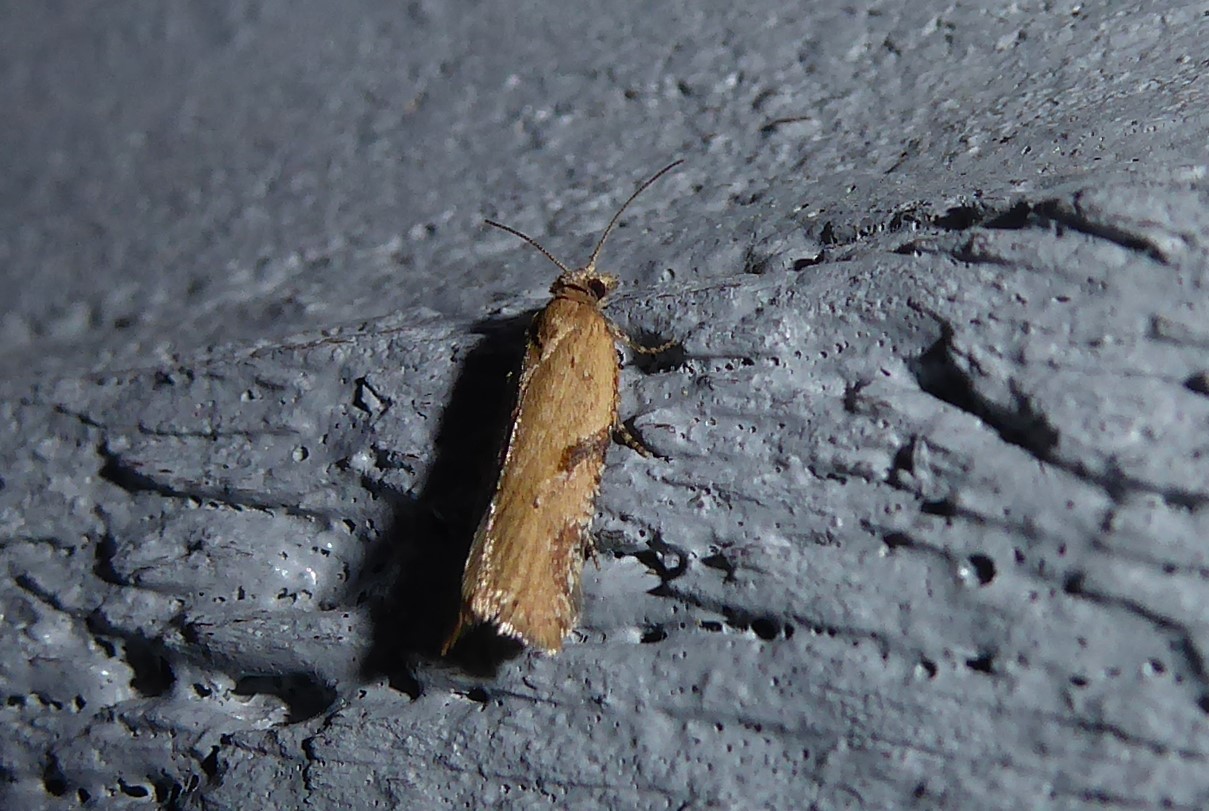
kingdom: Animalia
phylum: Arthropoda
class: Insecta
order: Lepidoptera
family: Tortricidae
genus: Capua
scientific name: Capua semiferana
